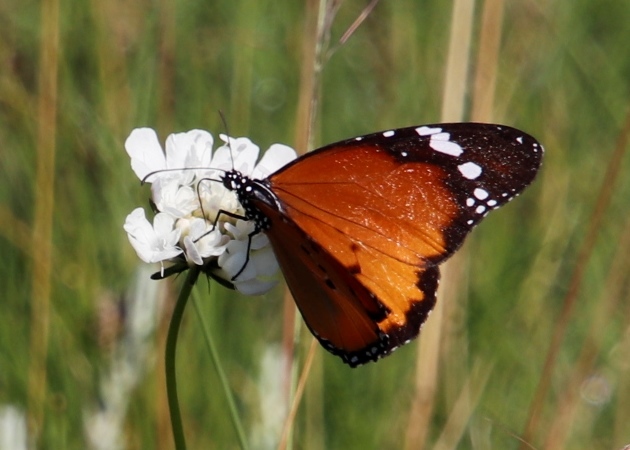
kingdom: Animalia
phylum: Arthropoda
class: Insecta
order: Lepidoptera
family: Nymphalidae
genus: Danaus
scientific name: Danaus chrysippus
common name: Plain tiger
